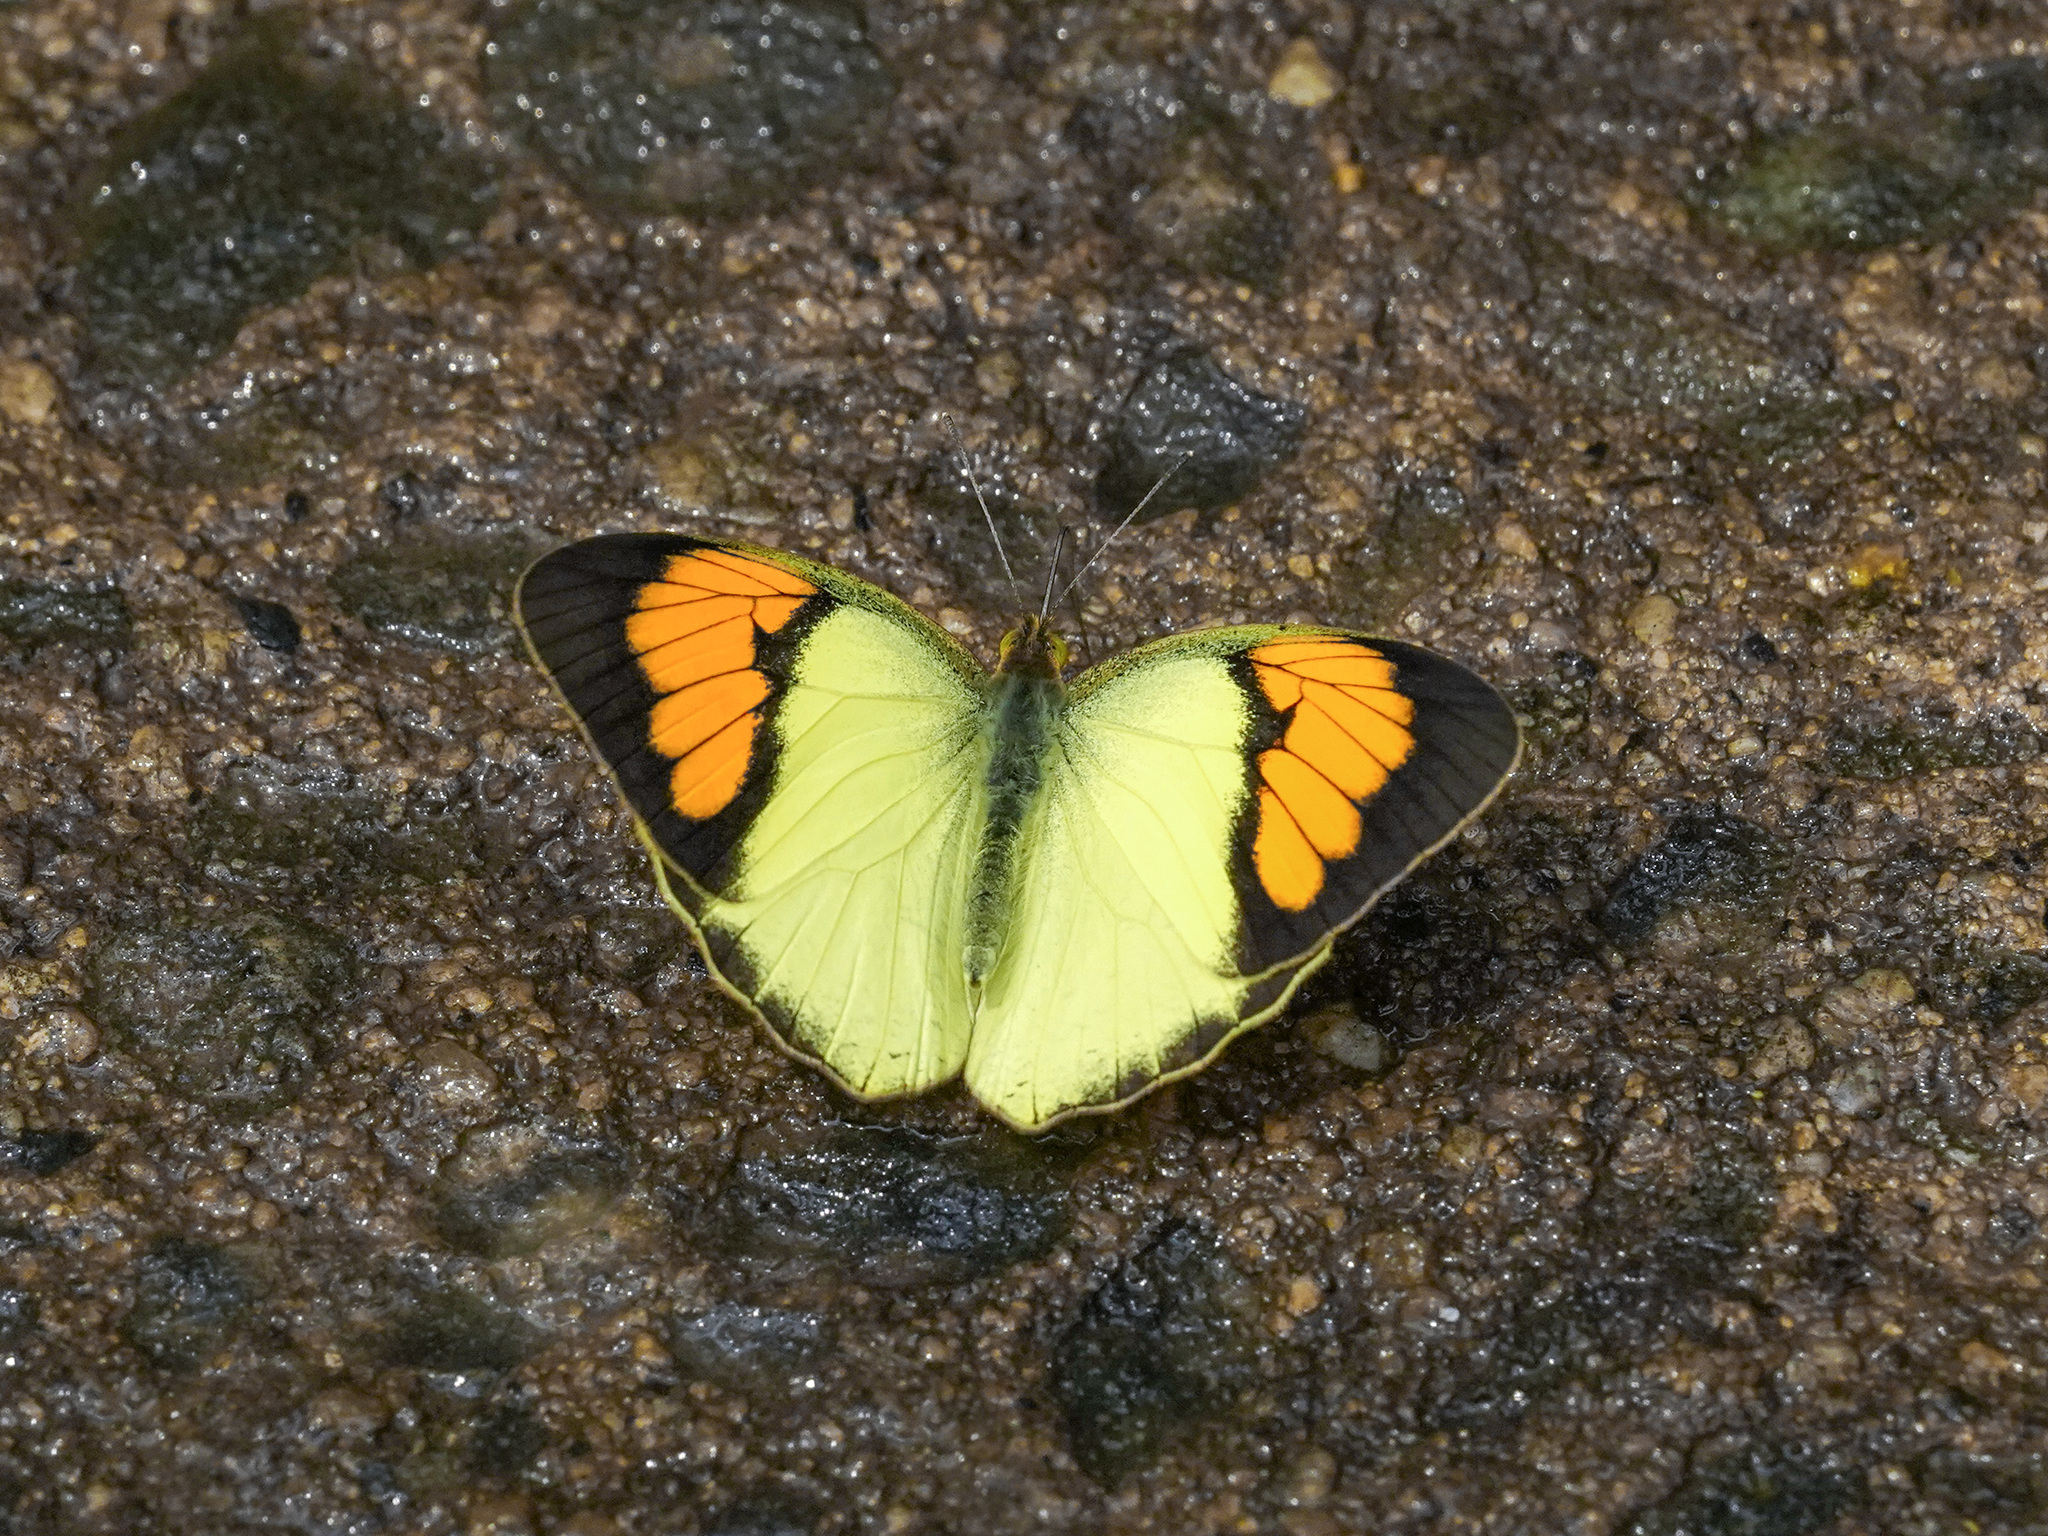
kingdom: Animalia
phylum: Arthropoda
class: Insecta
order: Lepidoptera
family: Pieridae
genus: Ixias
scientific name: Ixias pyrene
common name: Yellow orange tip
